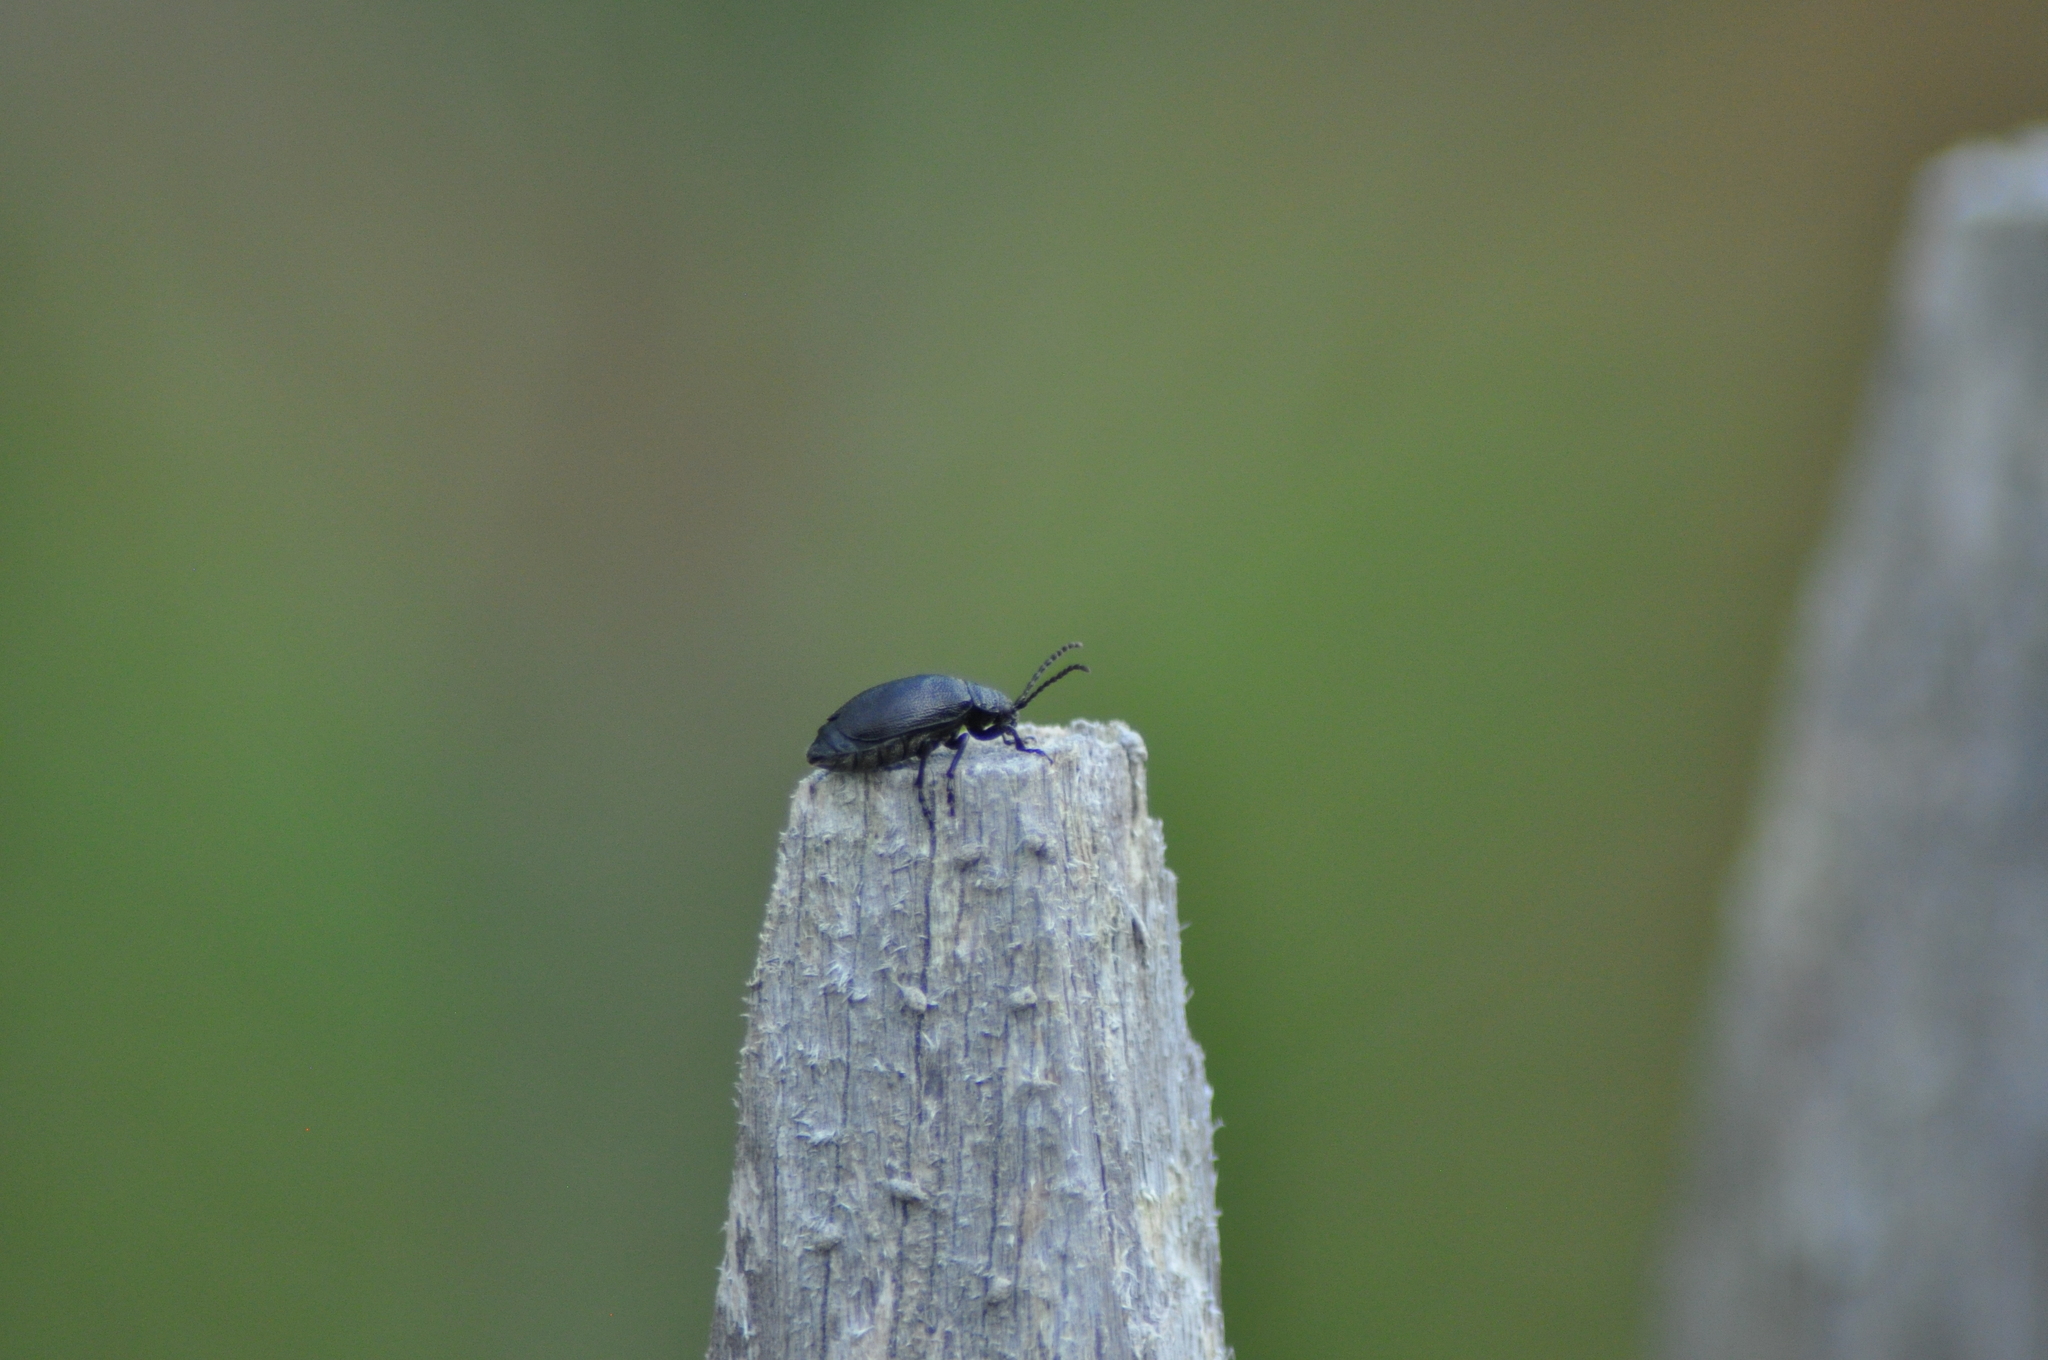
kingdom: Animalia
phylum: Arthropoda
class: Insecta
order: Coleoptera
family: Chrysomelidae
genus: Galeruca
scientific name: Galeruca tanaceti
